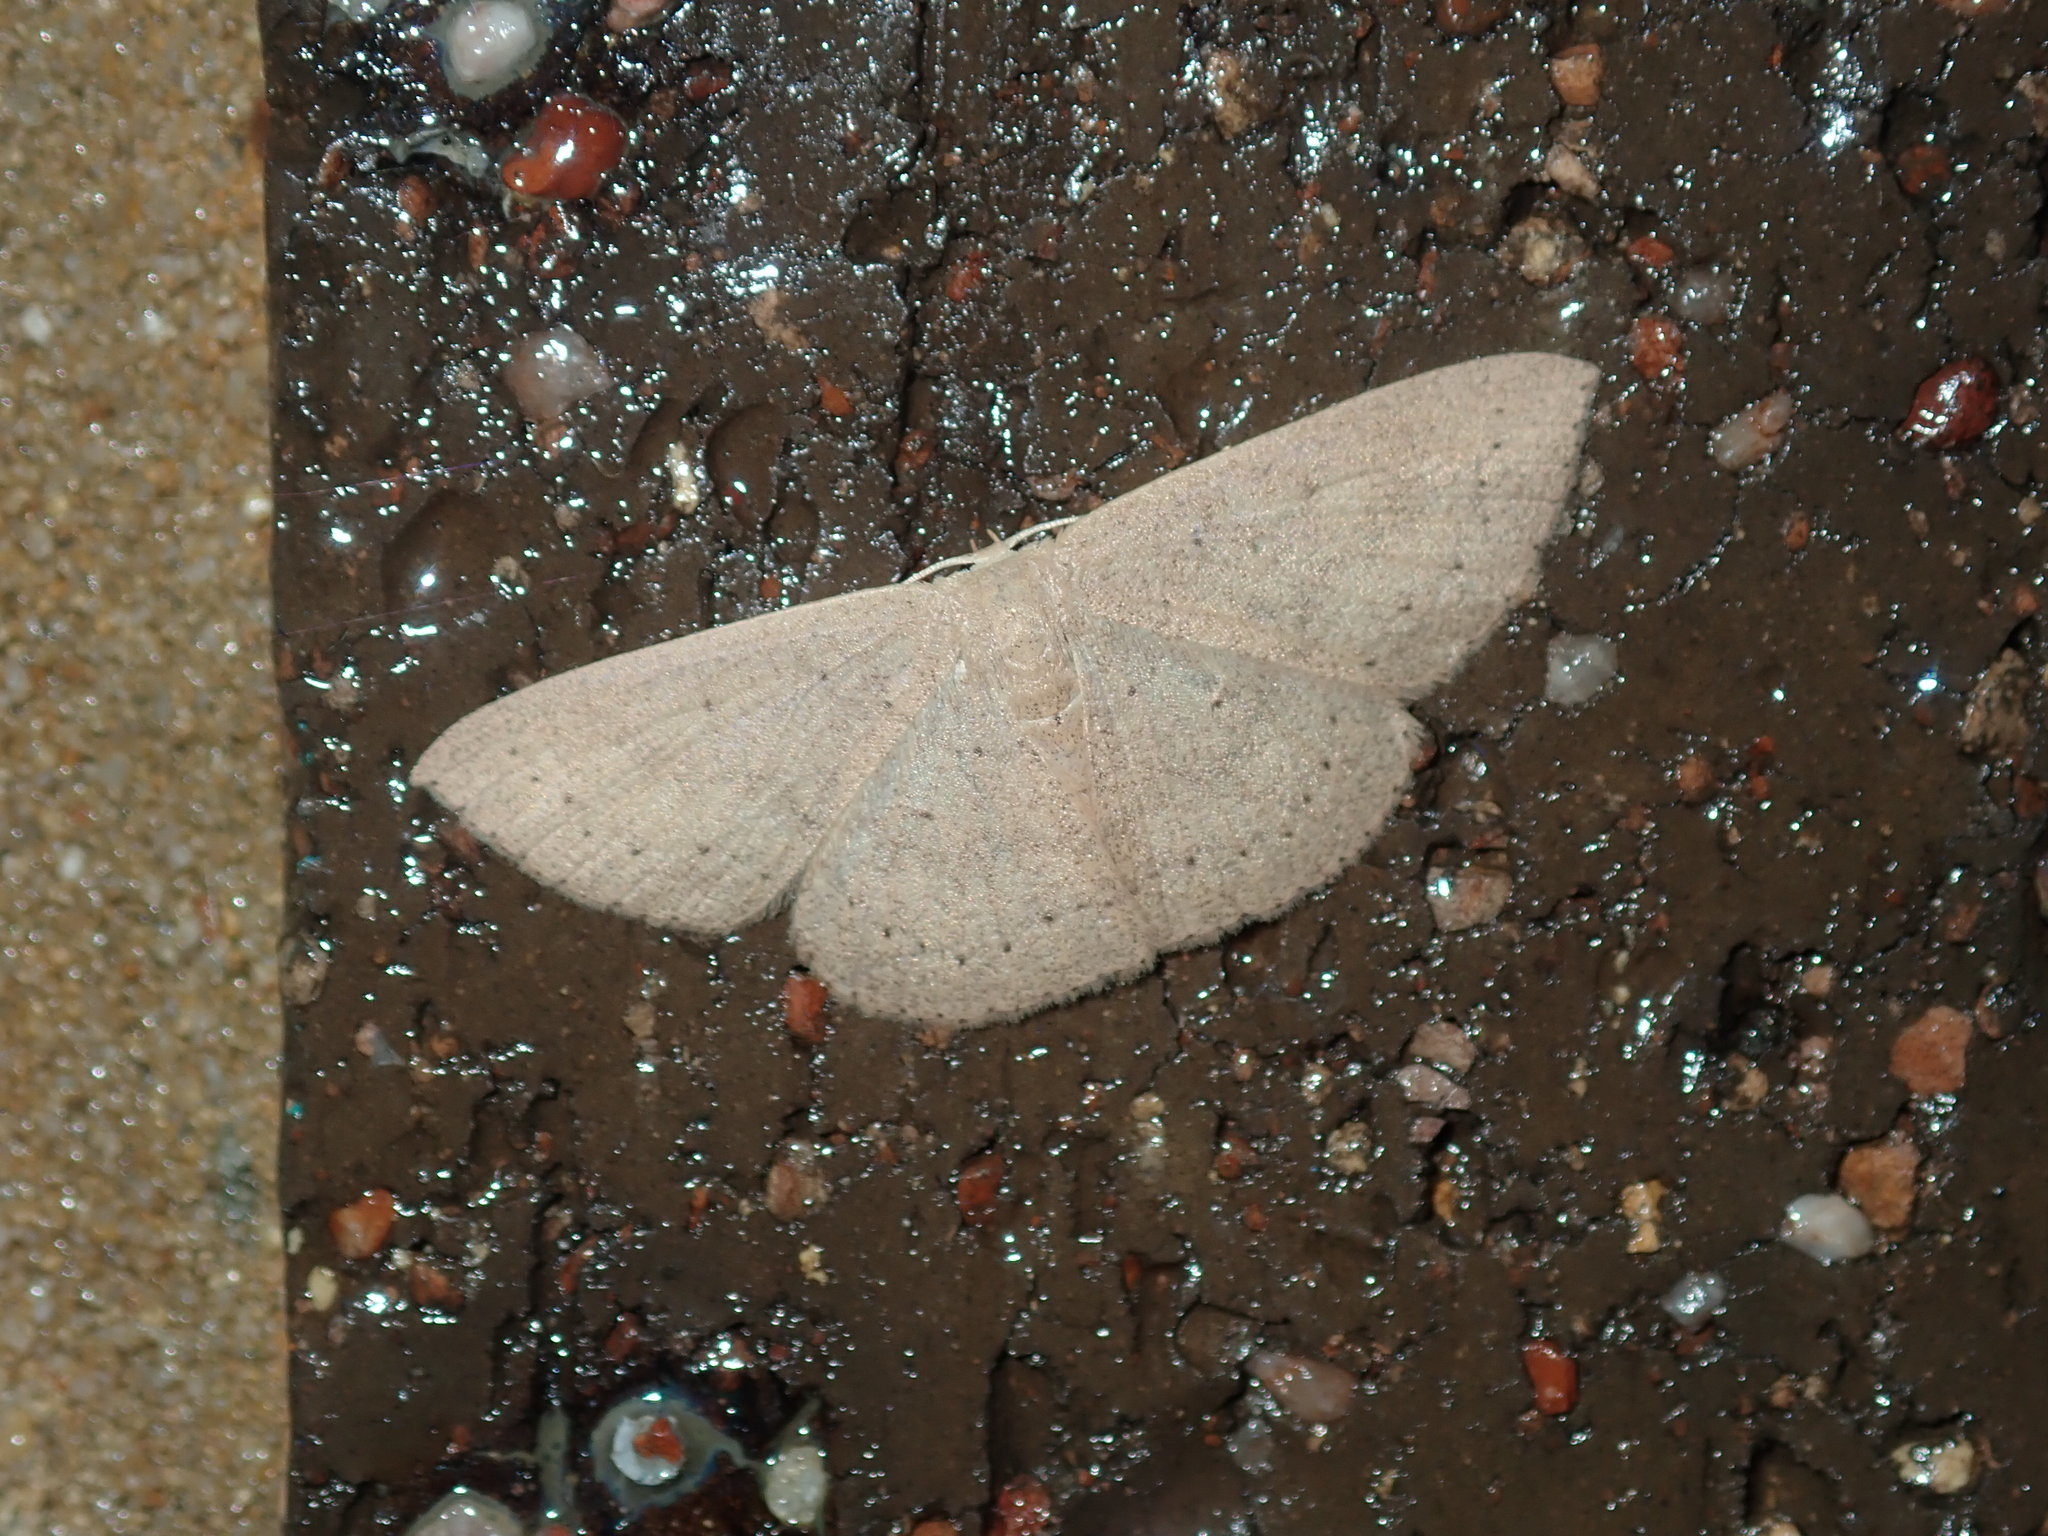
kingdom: Animalia
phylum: Arthropoda
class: Insecta
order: Lepidoptera
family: Geometridae
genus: Cyclophora
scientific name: Cyclophora obstataria
